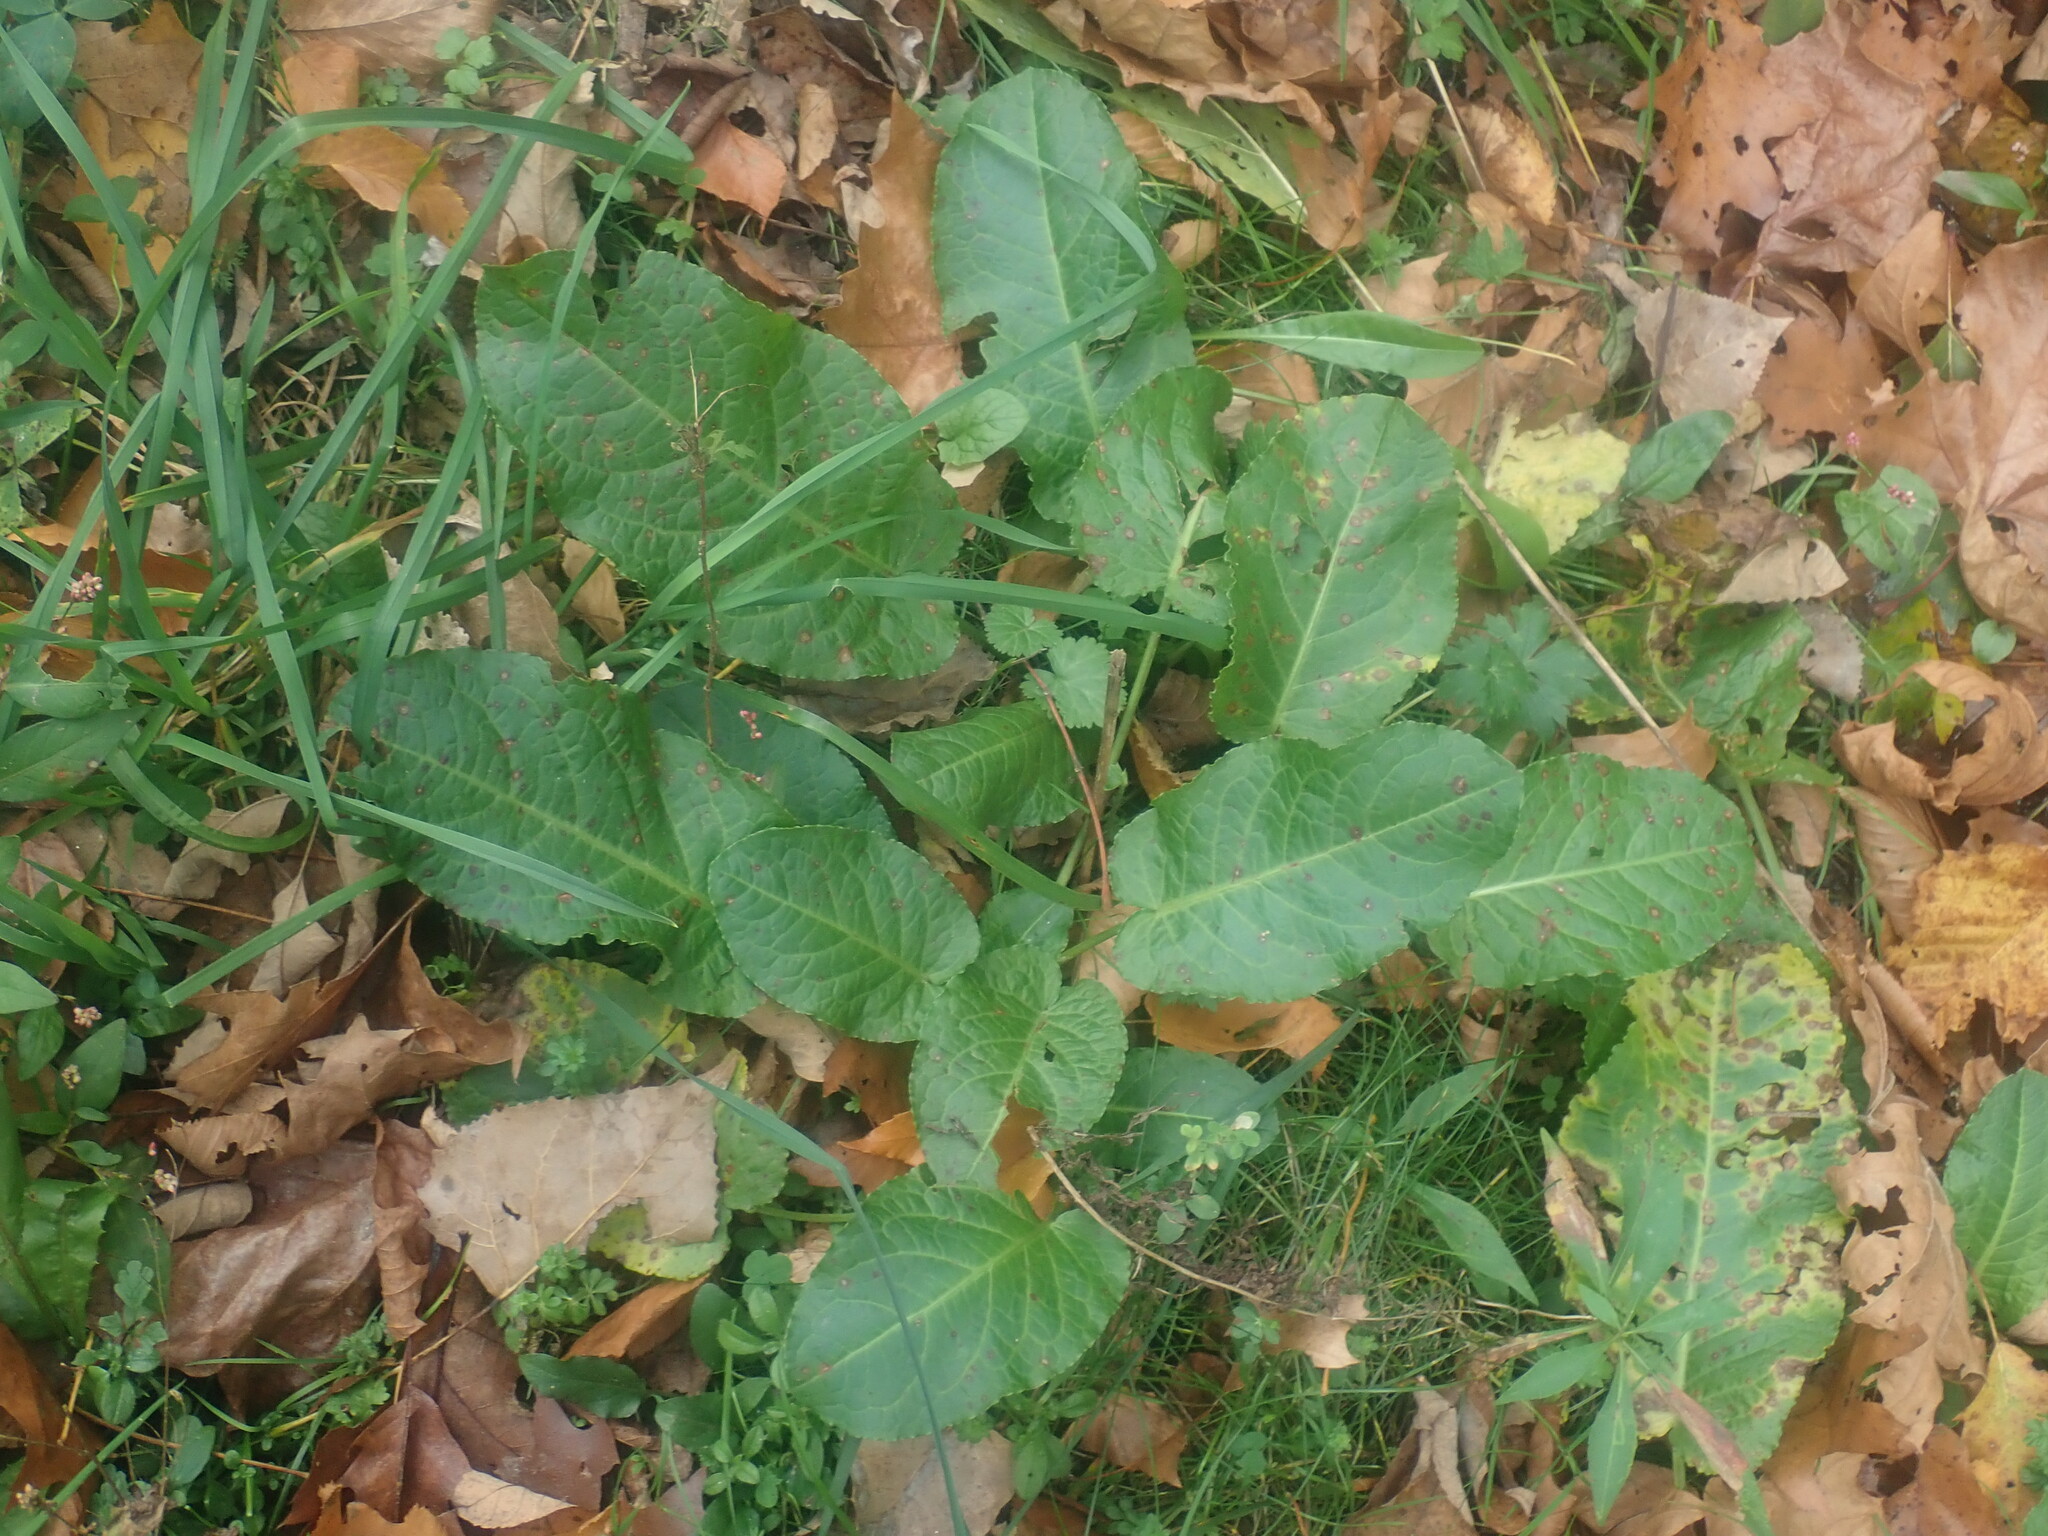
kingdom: Plantae
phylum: Tracheophyta
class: Magnoliopsida
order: Caryophyllales
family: Polygonaceae
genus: Rumex
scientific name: Rumex obtusifolius
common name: Bitter dock
